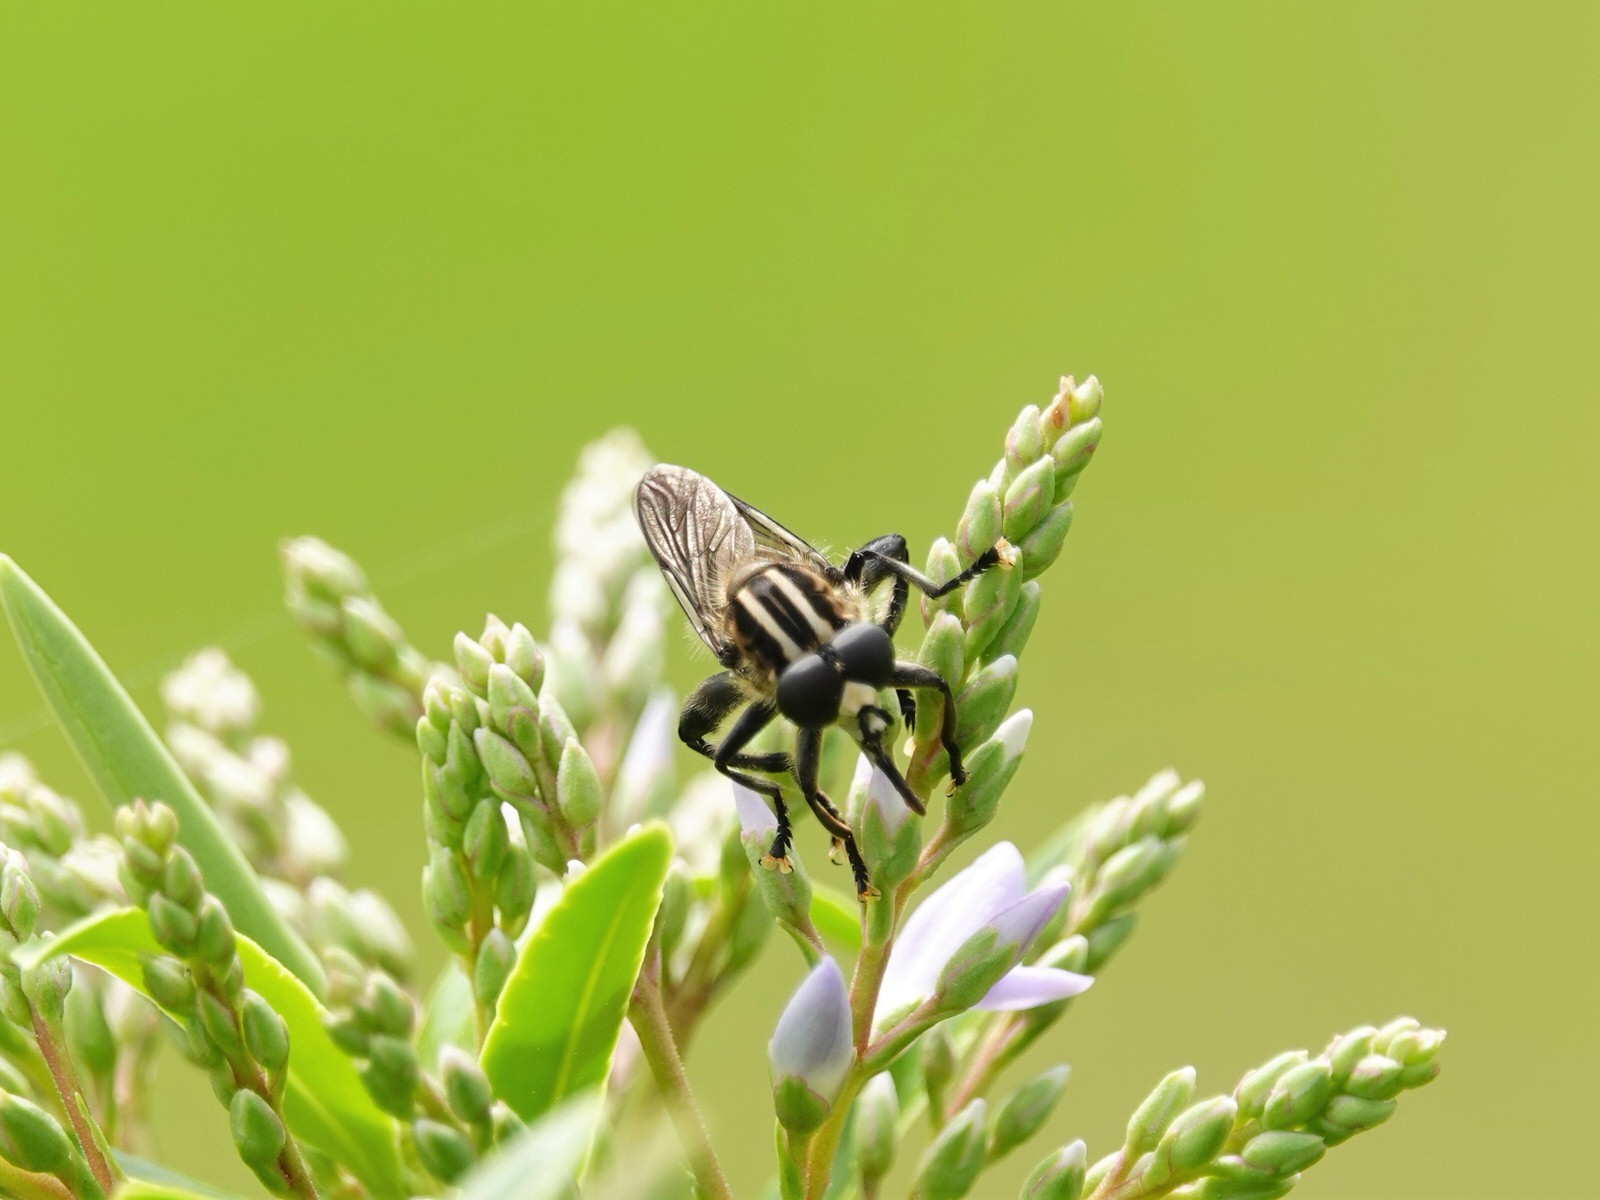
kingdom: Animalia
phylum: Arthropoda
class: Insecta
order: Diptera
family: Syrphidae
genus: Orthoprosopa
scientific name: Orthoprosopa bilineata
